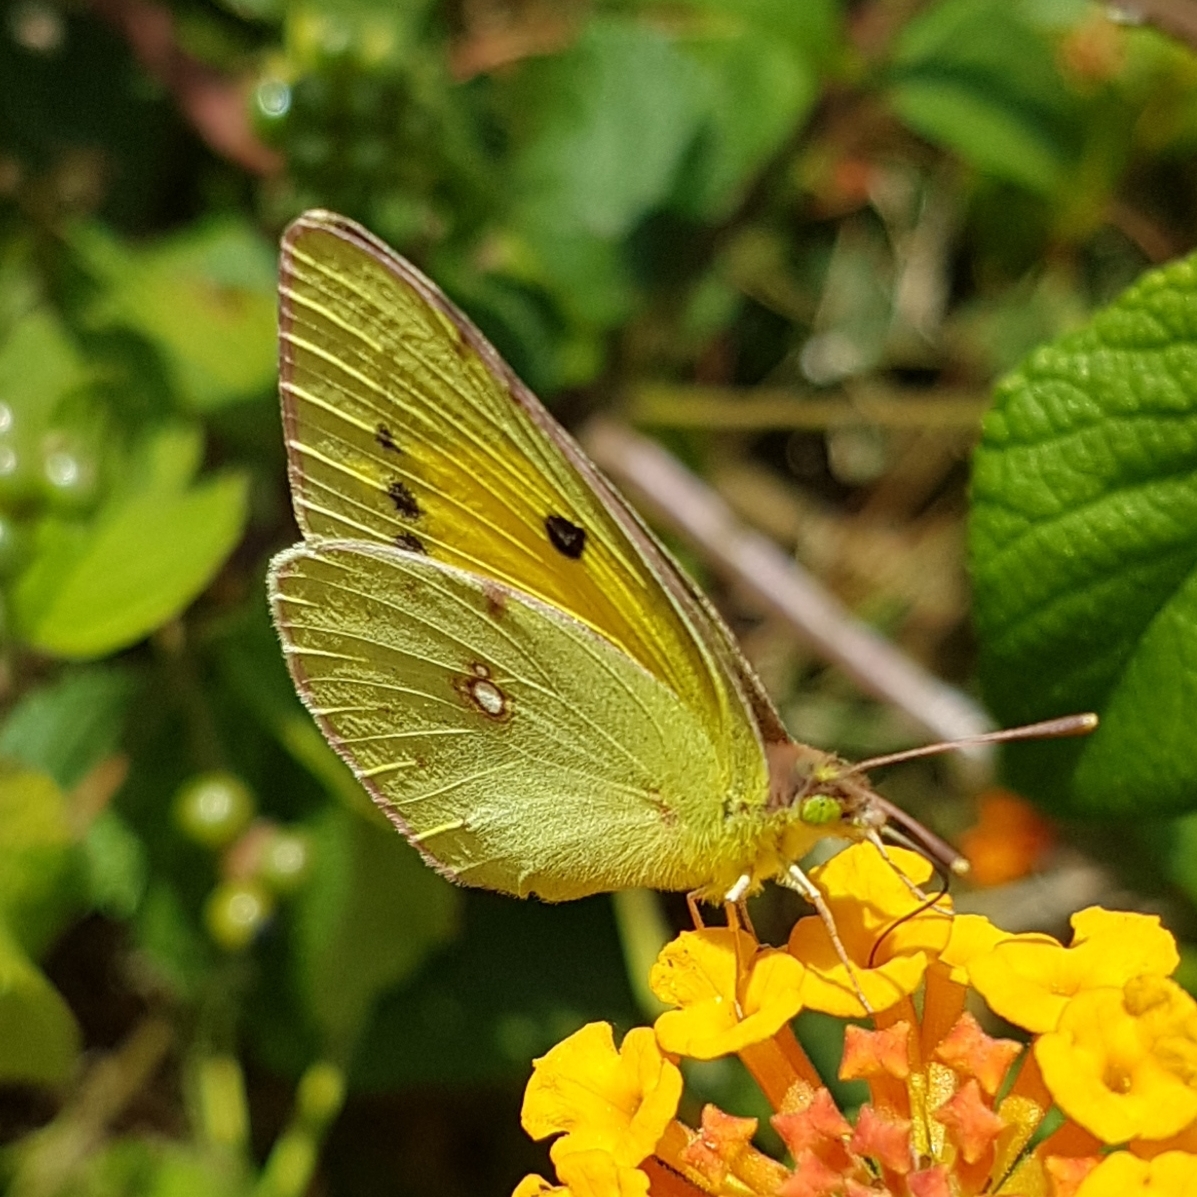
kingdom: Animalia
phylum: Arthropoda
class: Insecta
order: Lepidoptera
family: Pieridae
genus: Colias
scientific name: Colias croceus
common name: Clouded yellow
